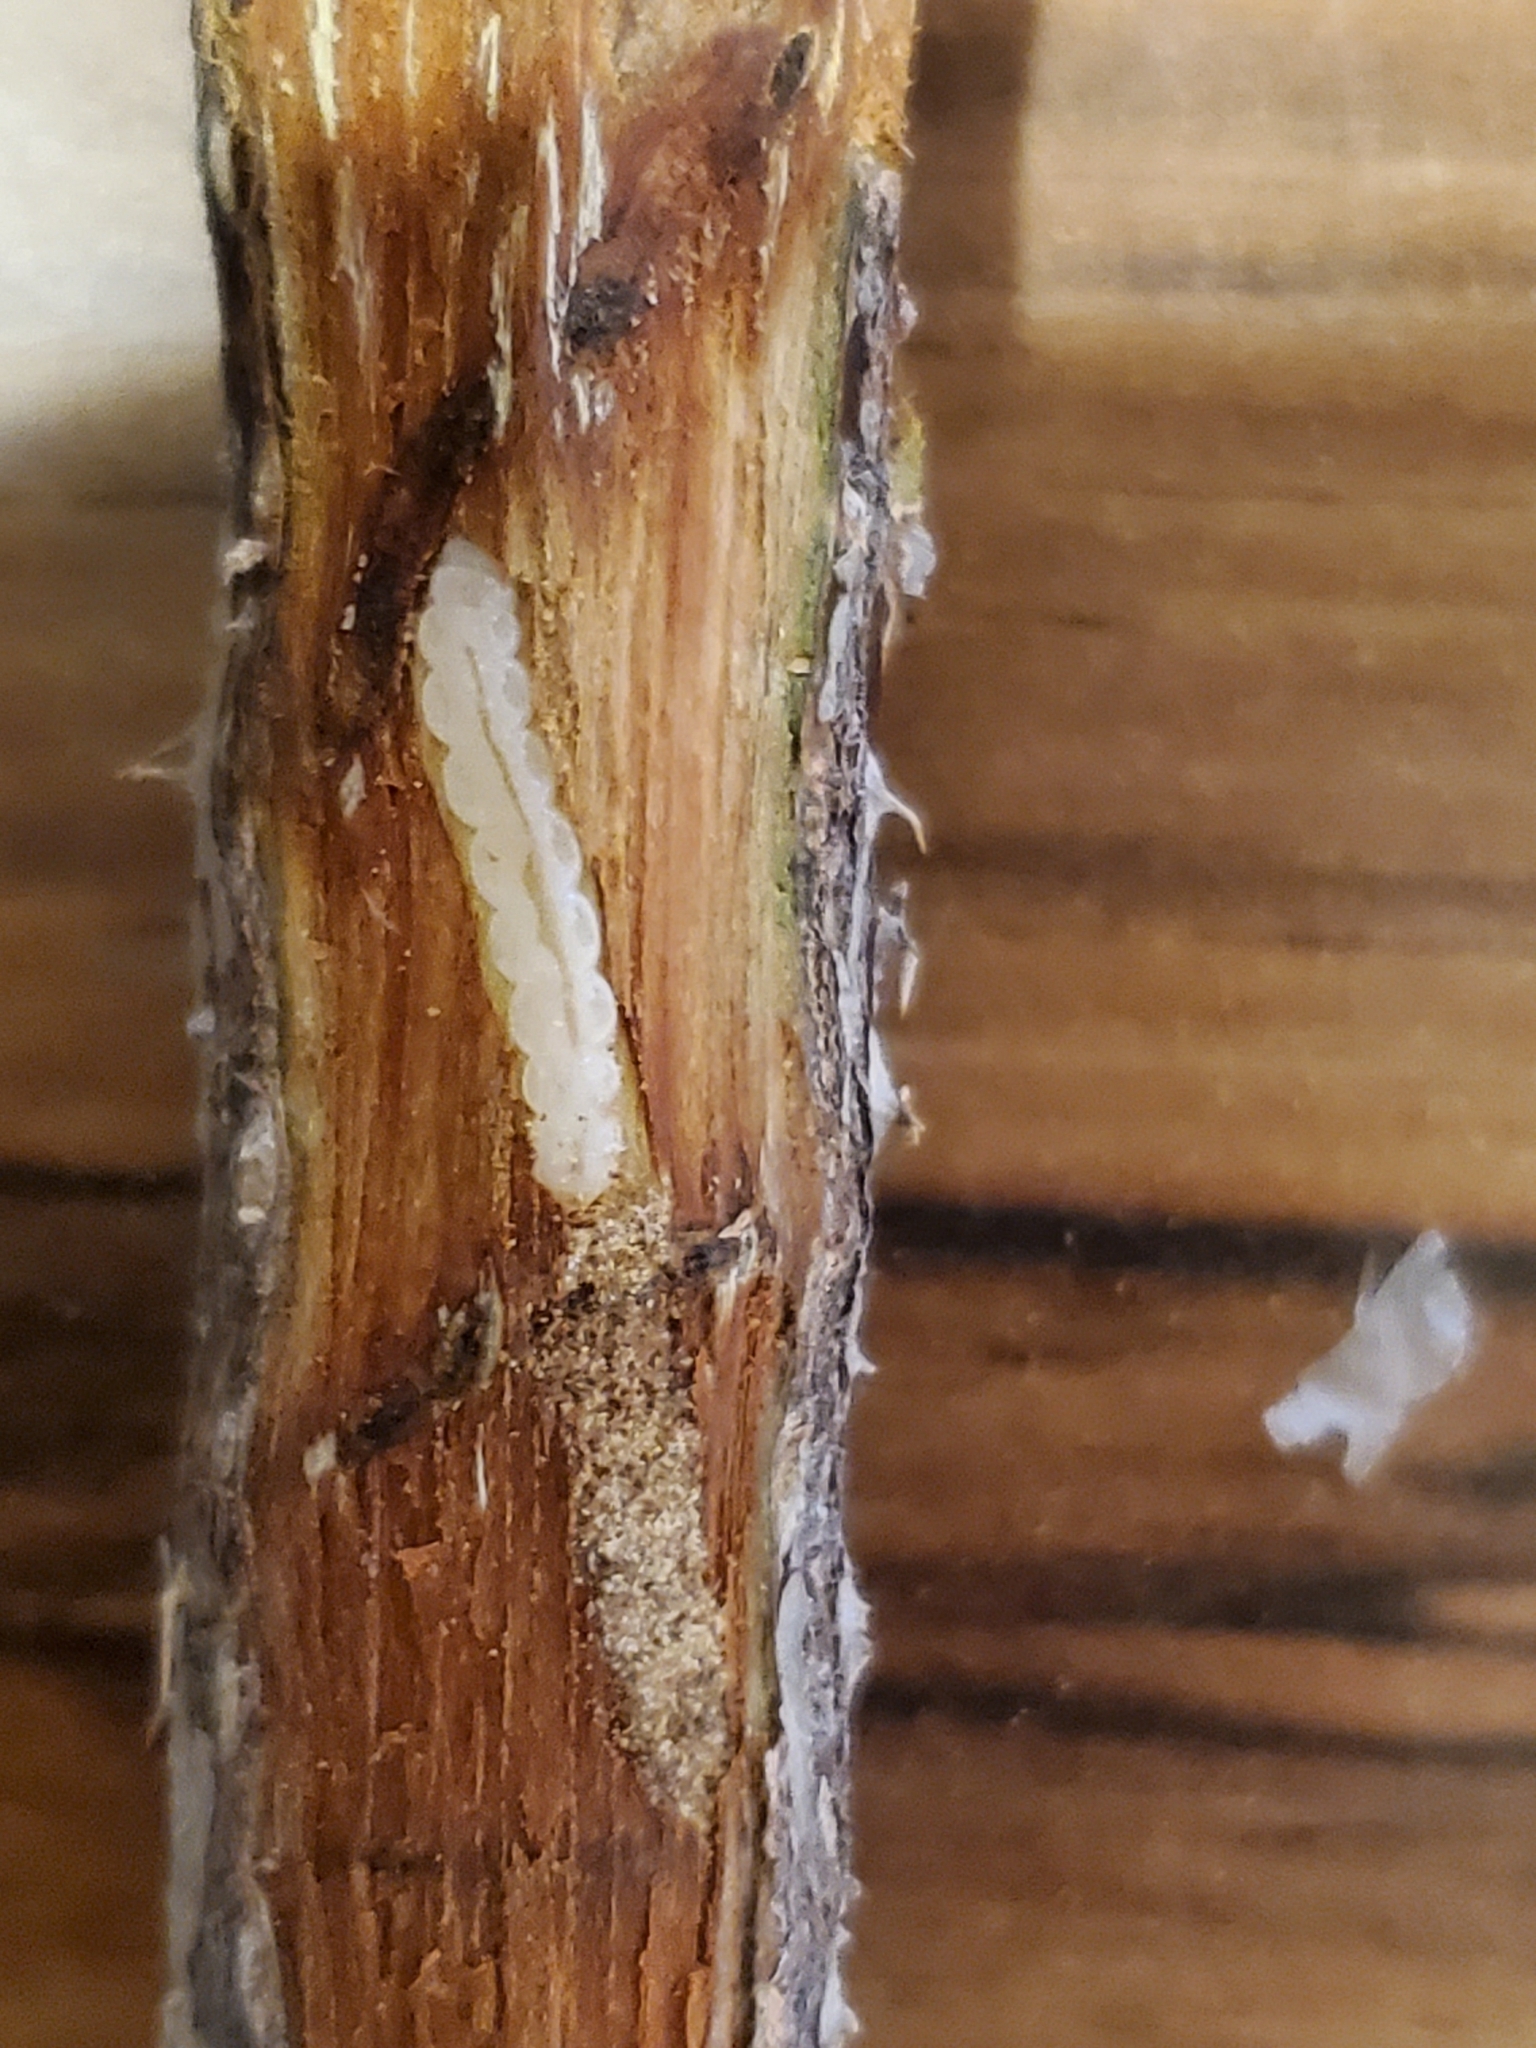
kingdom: Animalia
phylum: Arthropoda
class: Insecta
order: Coleoptera
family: Buprestidae
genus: Agrilus
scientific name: Agrilus cuprescens
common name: Rose stem girdler
